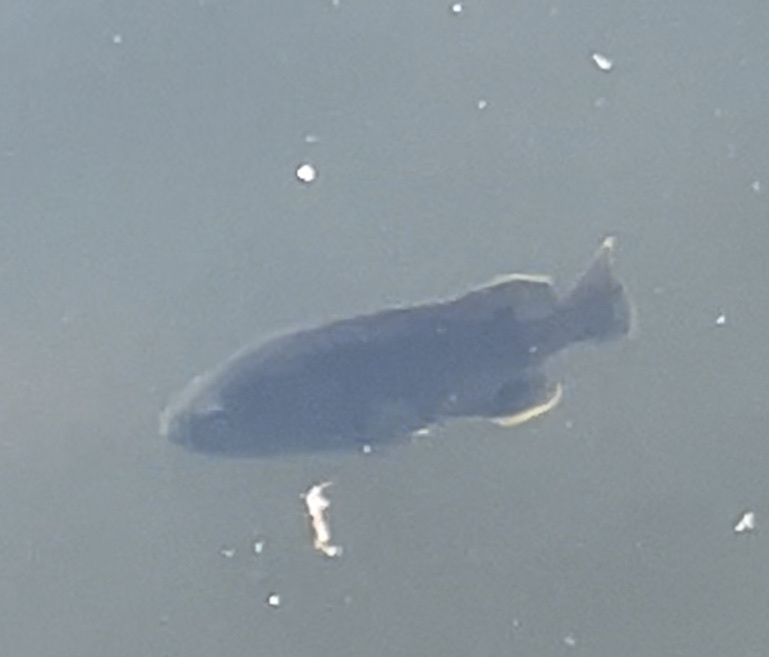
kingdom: Animalia
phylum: Chordata
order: Perciformes
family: Centrarchidae
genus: Lepomis
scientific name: Lepomis cyanellus
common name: Green sunfish
